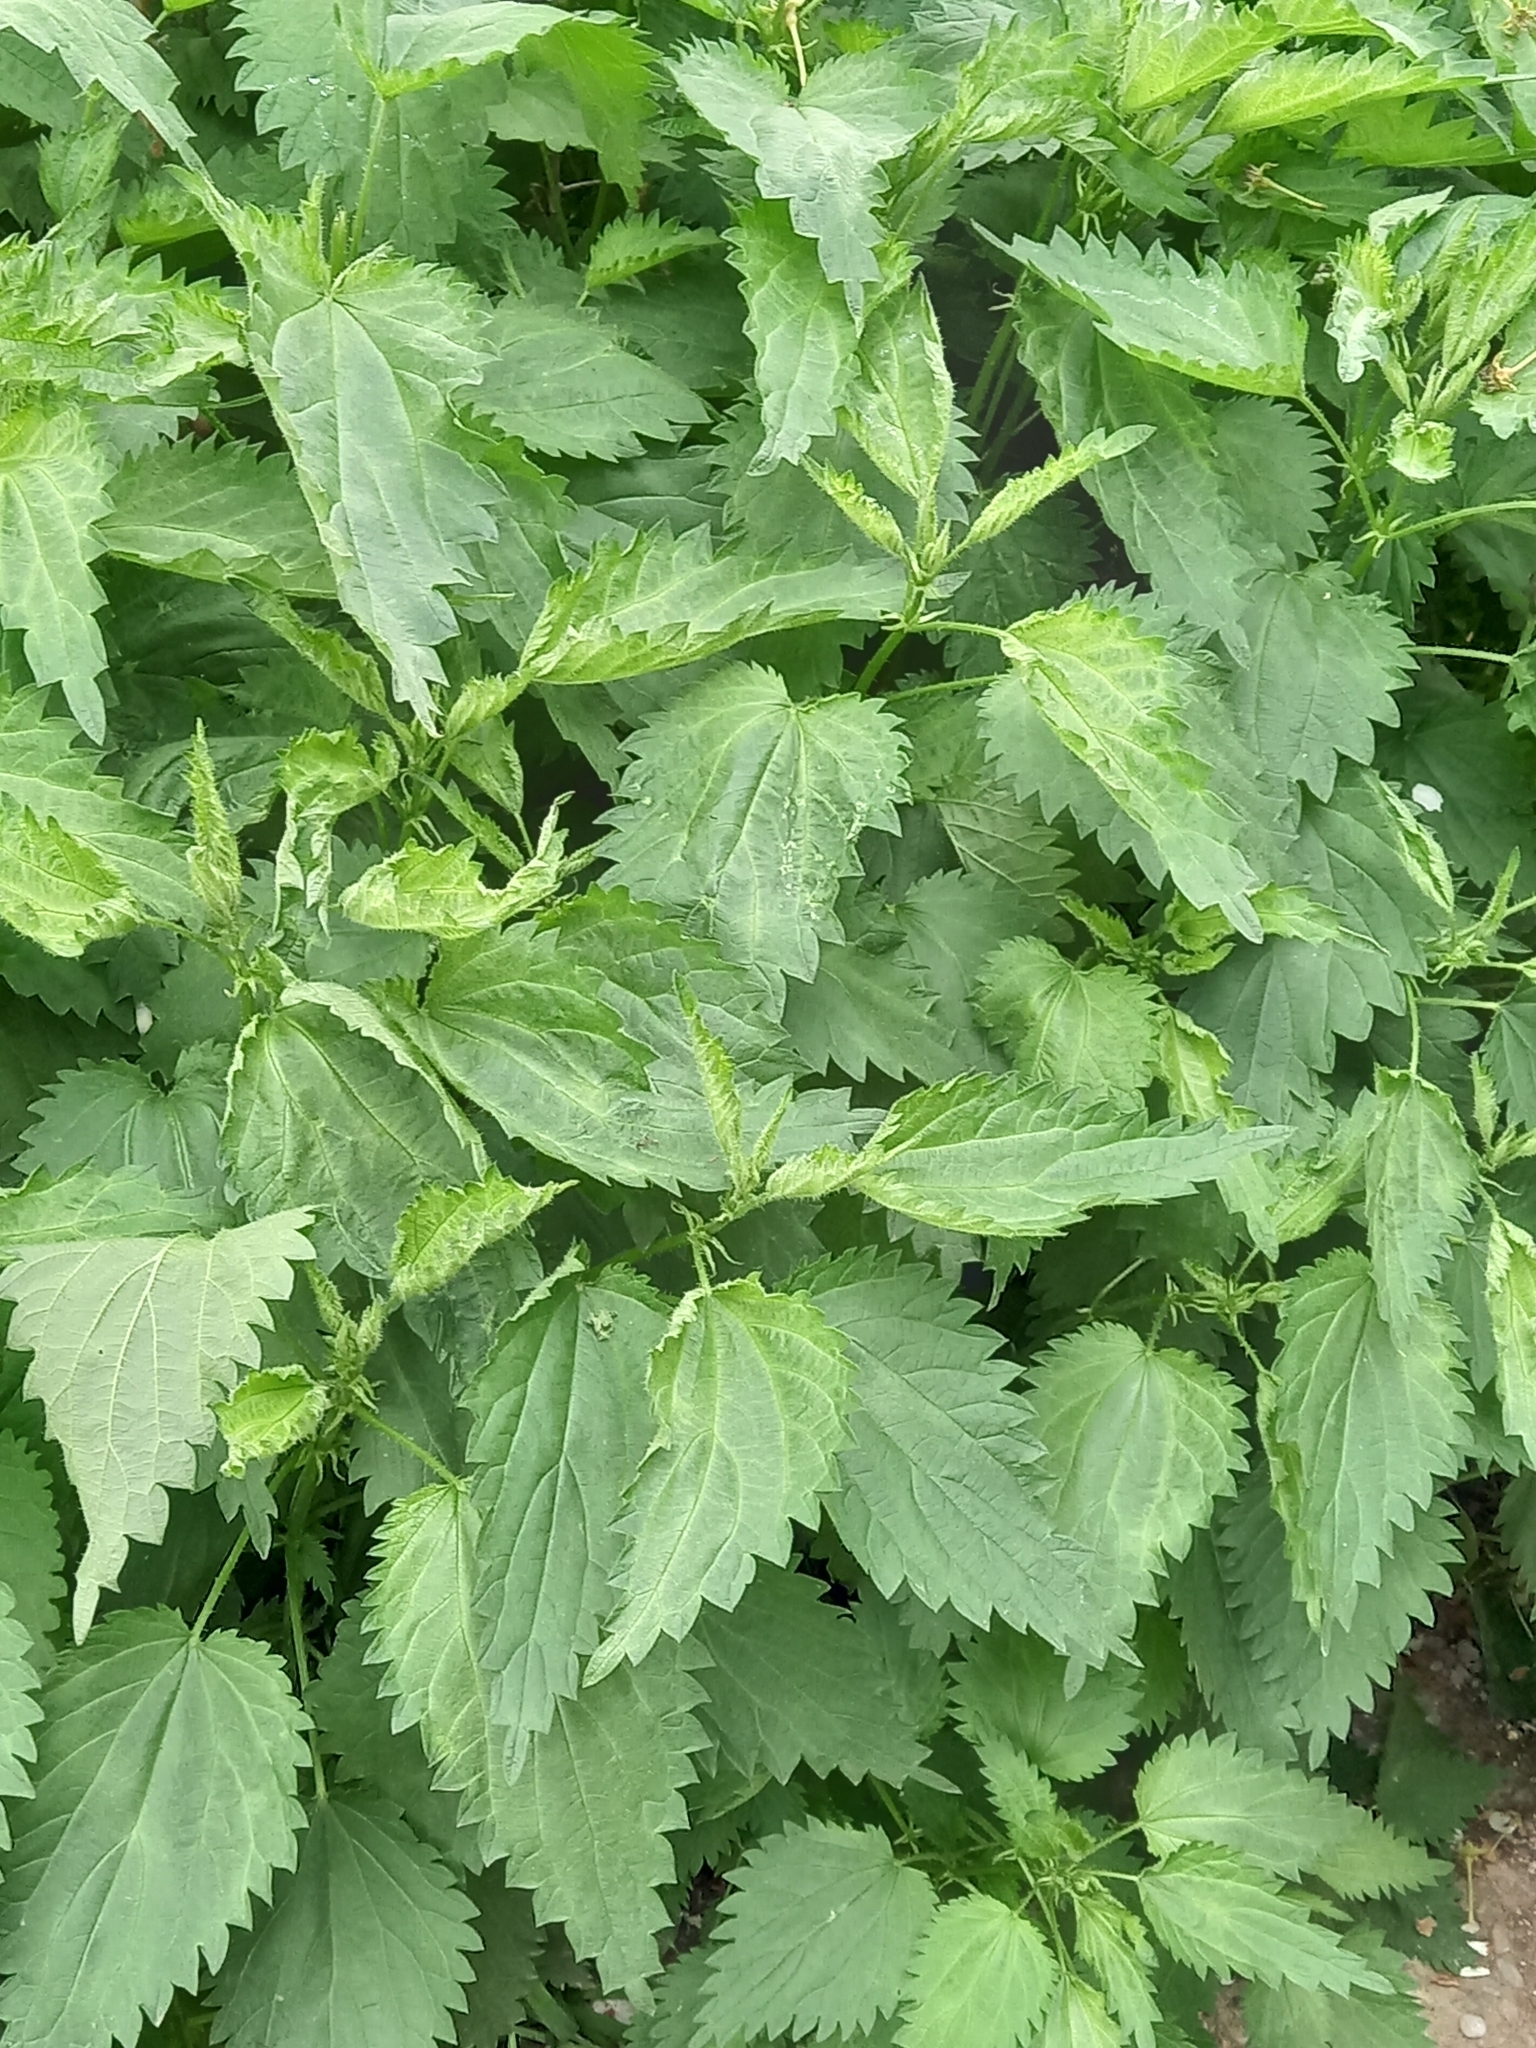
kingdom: Plantae
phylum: Tracheophyta
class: Magnoliopsida
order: Rosales
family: Urticaceae
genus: Urtica
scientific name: Urtica dioica
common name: Common nettle
